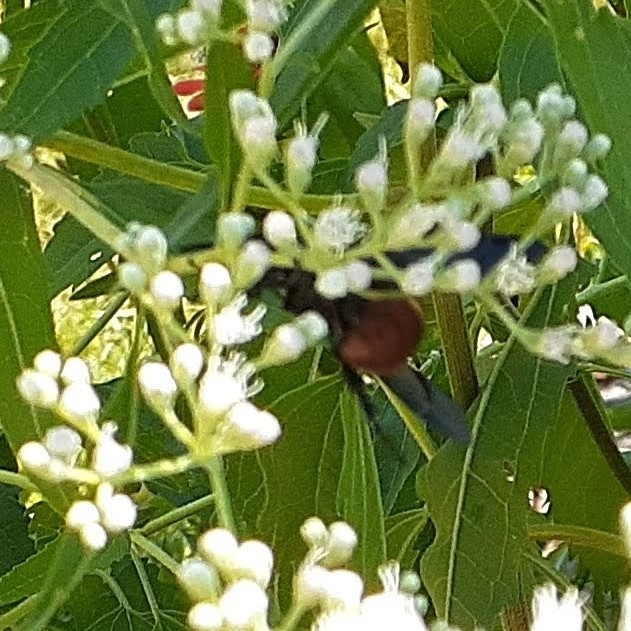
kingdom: Animalia
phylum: Arthropoda
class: Insecta
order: Hymenoptera
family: Scoliidae
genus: Scolia
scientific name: Scolia dubia
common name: Blue-winged scoliid wasp
